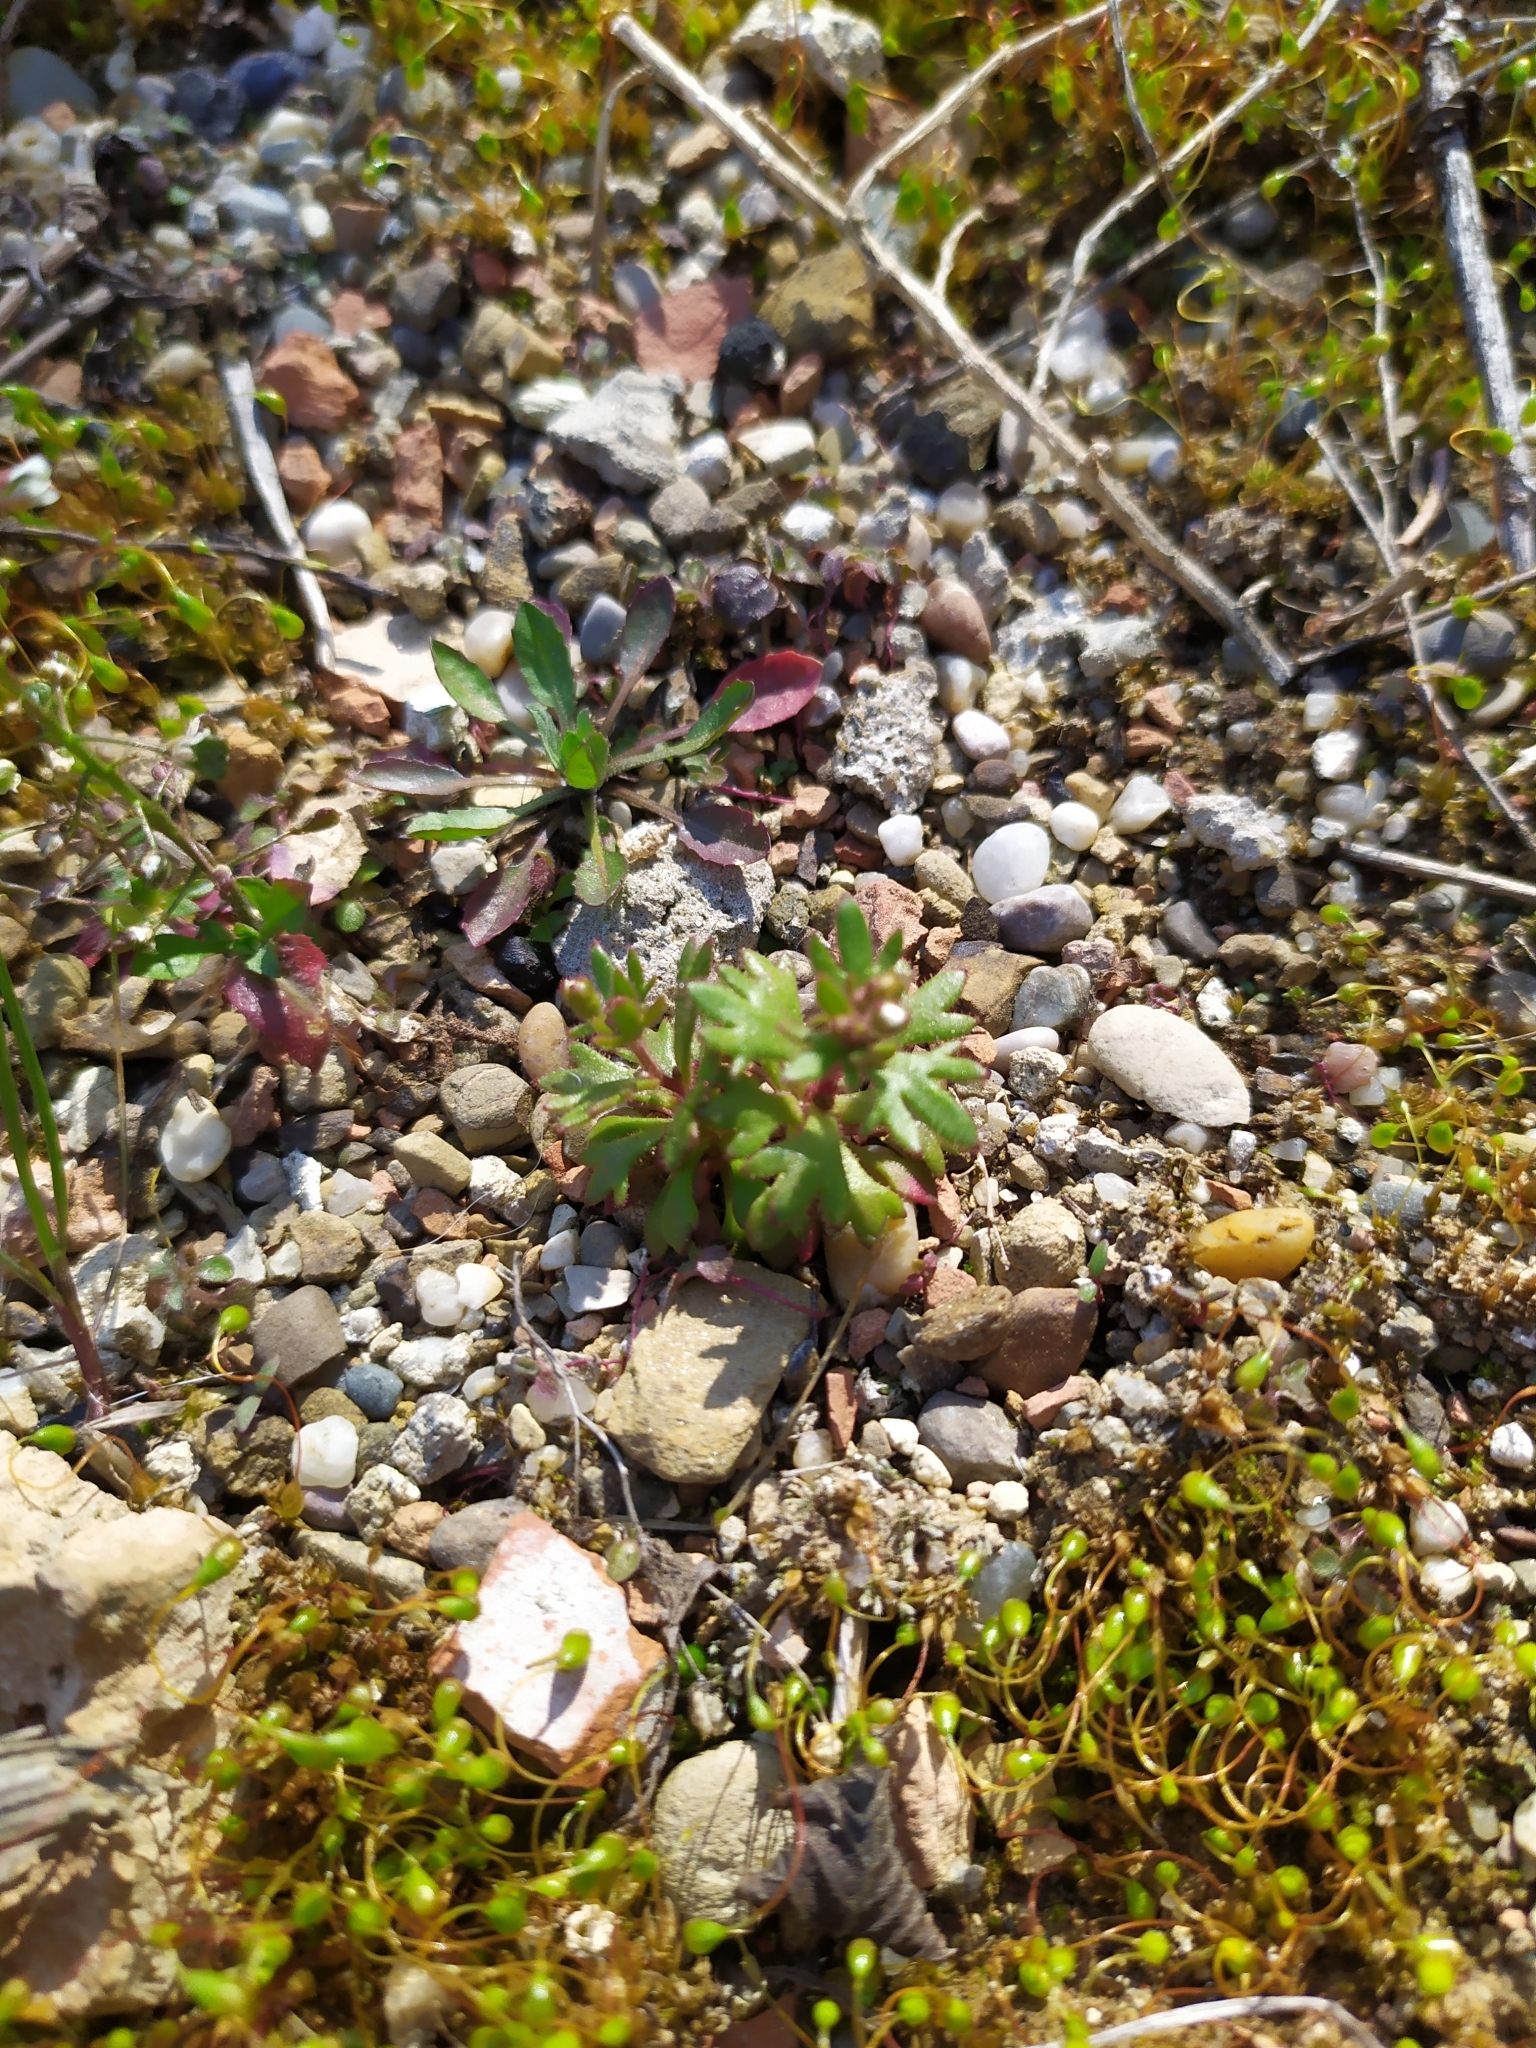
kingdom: Plantae
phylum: Tracheophyta
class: Magnoliopsida
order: Saxifragales
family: Saxifragaceae
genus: Saxifraga
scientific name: Saxifraga tridactylites
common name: Rue-leaved saxifrage
